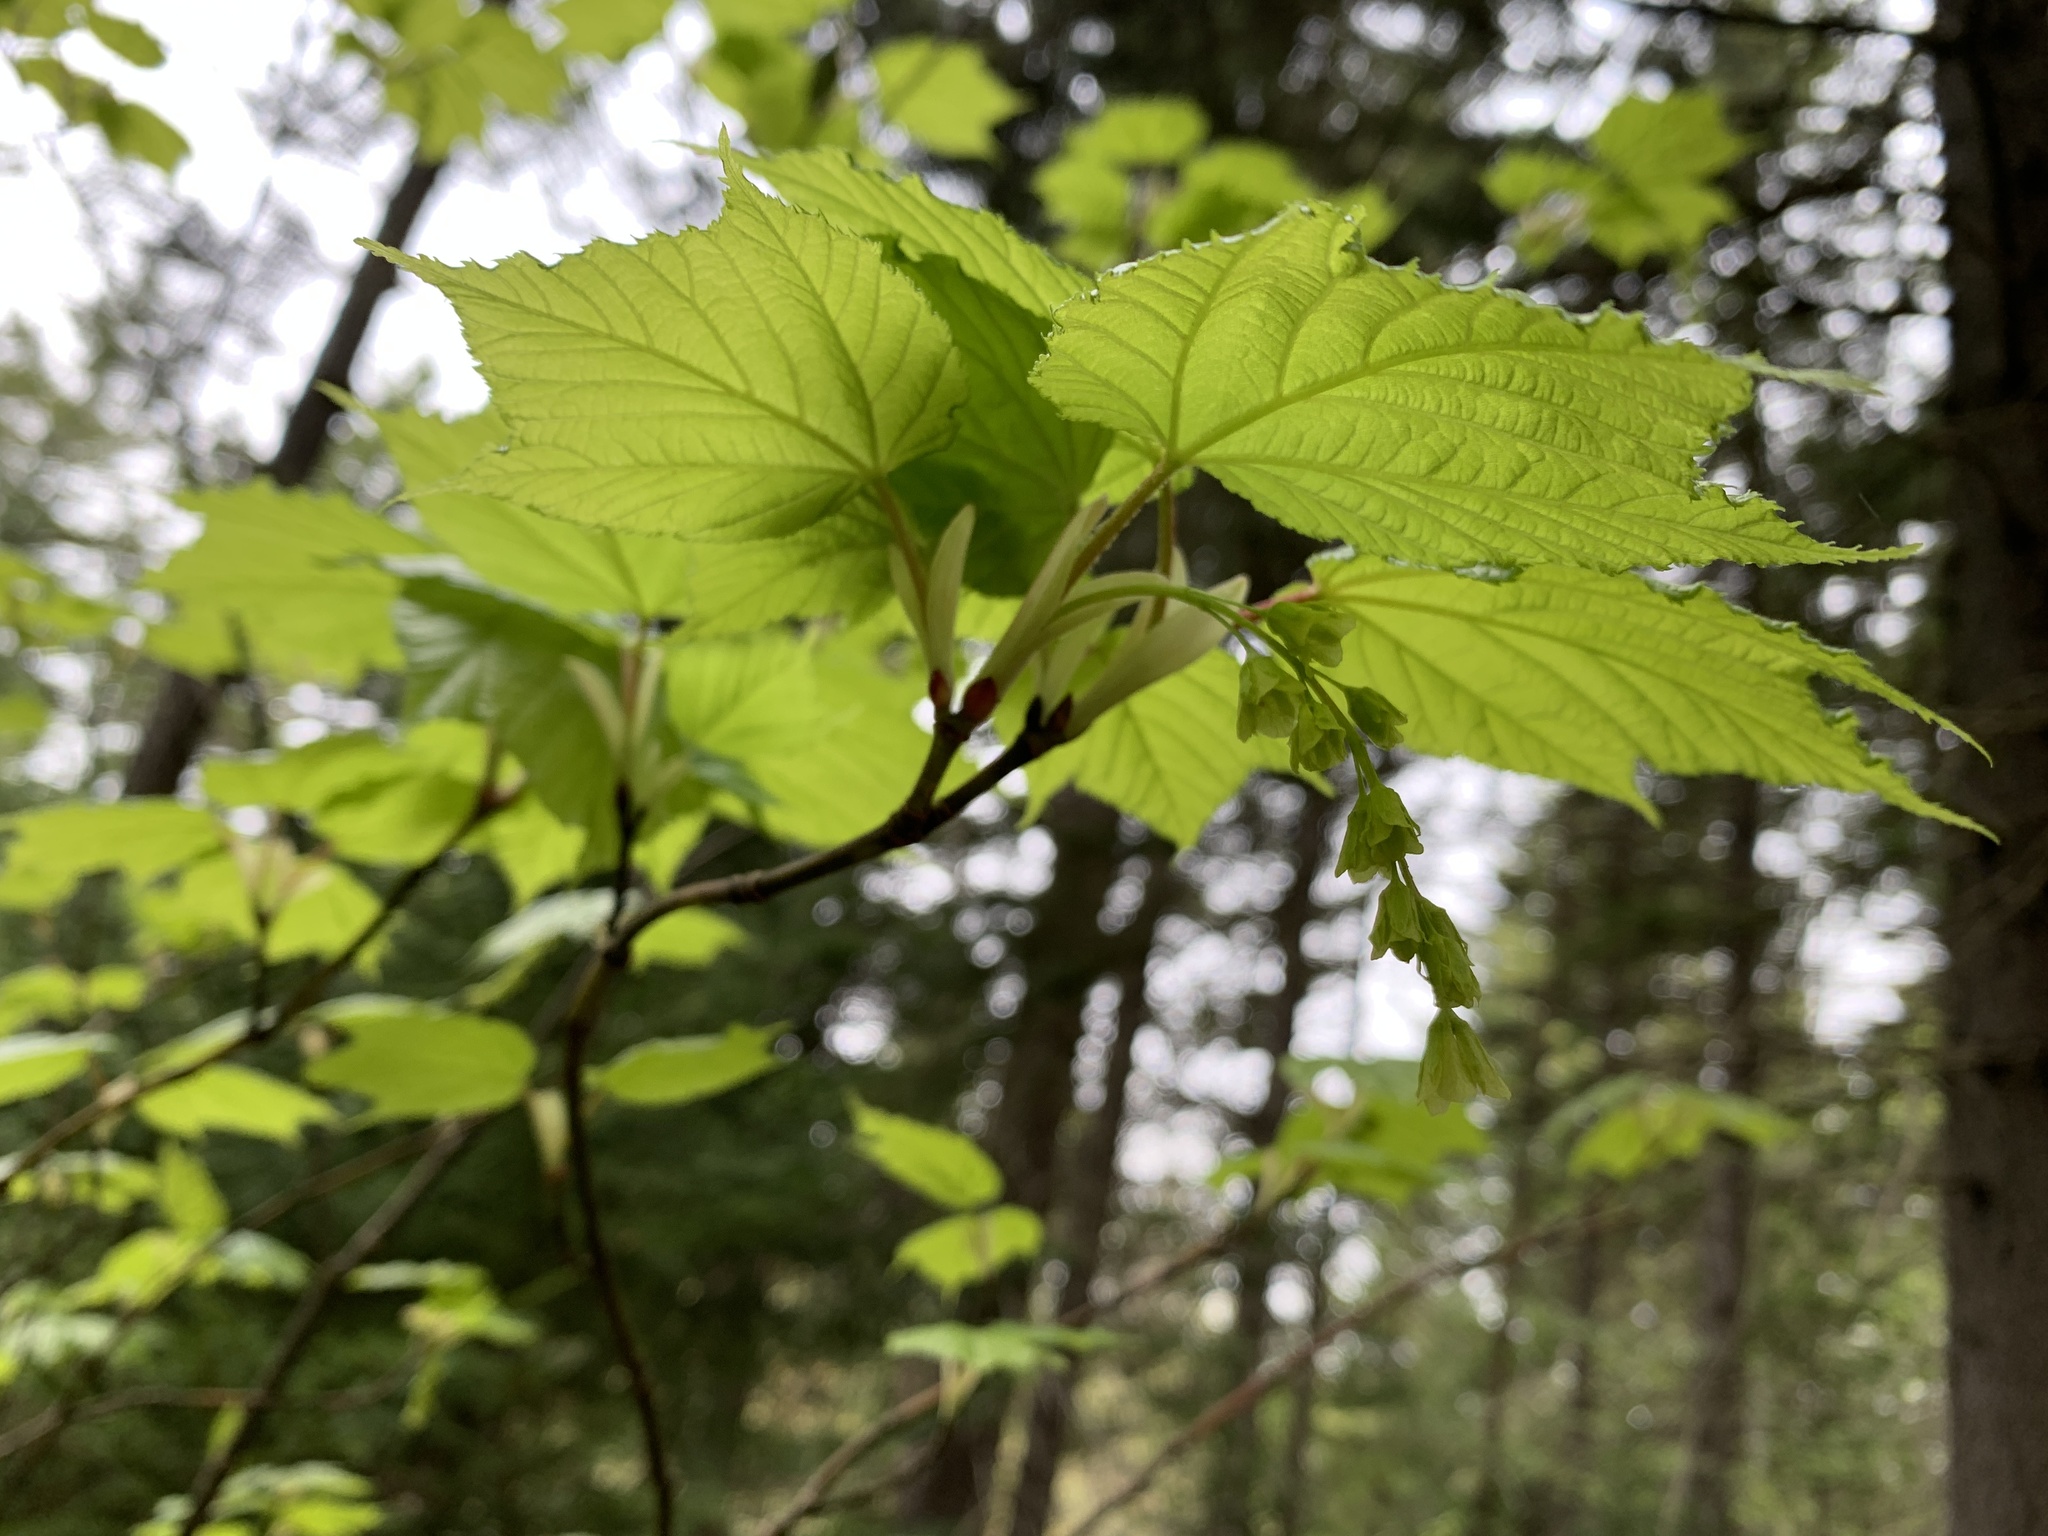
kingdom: Plantae
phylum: Tracheophyta
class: Magnoliopsida
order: Sapindales
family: Sapindaceae
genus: Acer
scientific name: Acer pensylvanicum
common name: Moosewood
